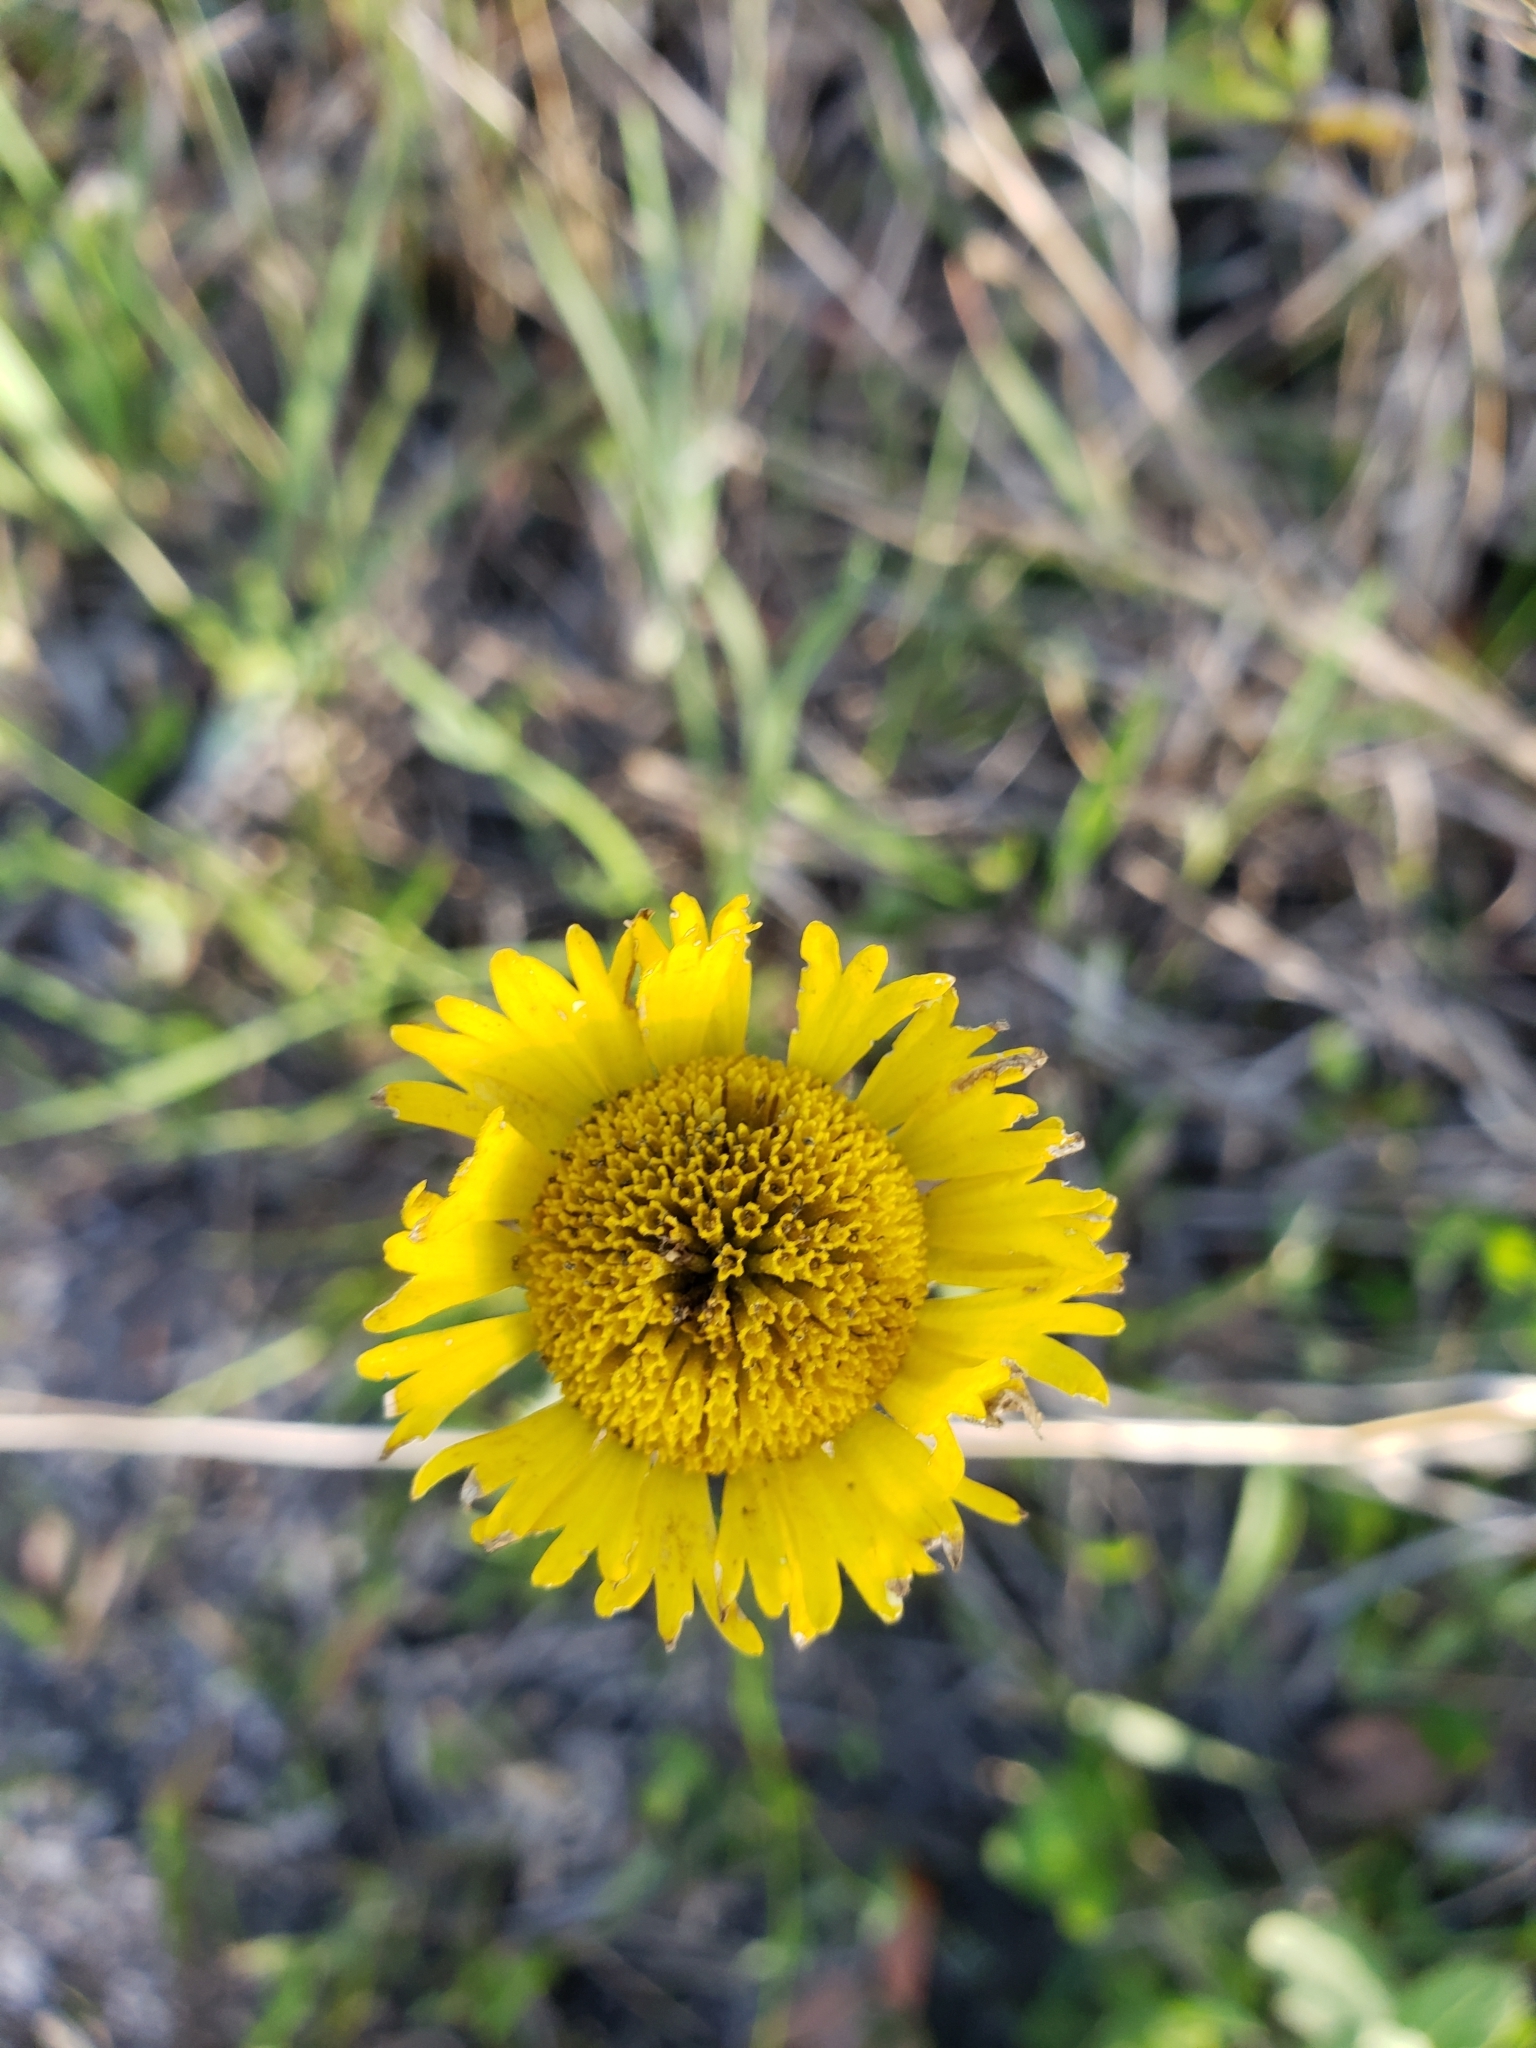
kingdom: Plantae
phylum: Tracheophyta
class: Magnoliopsida
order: Asterales
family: Asteraceae
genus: Helenium
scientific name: Helenium pinnatifidum
